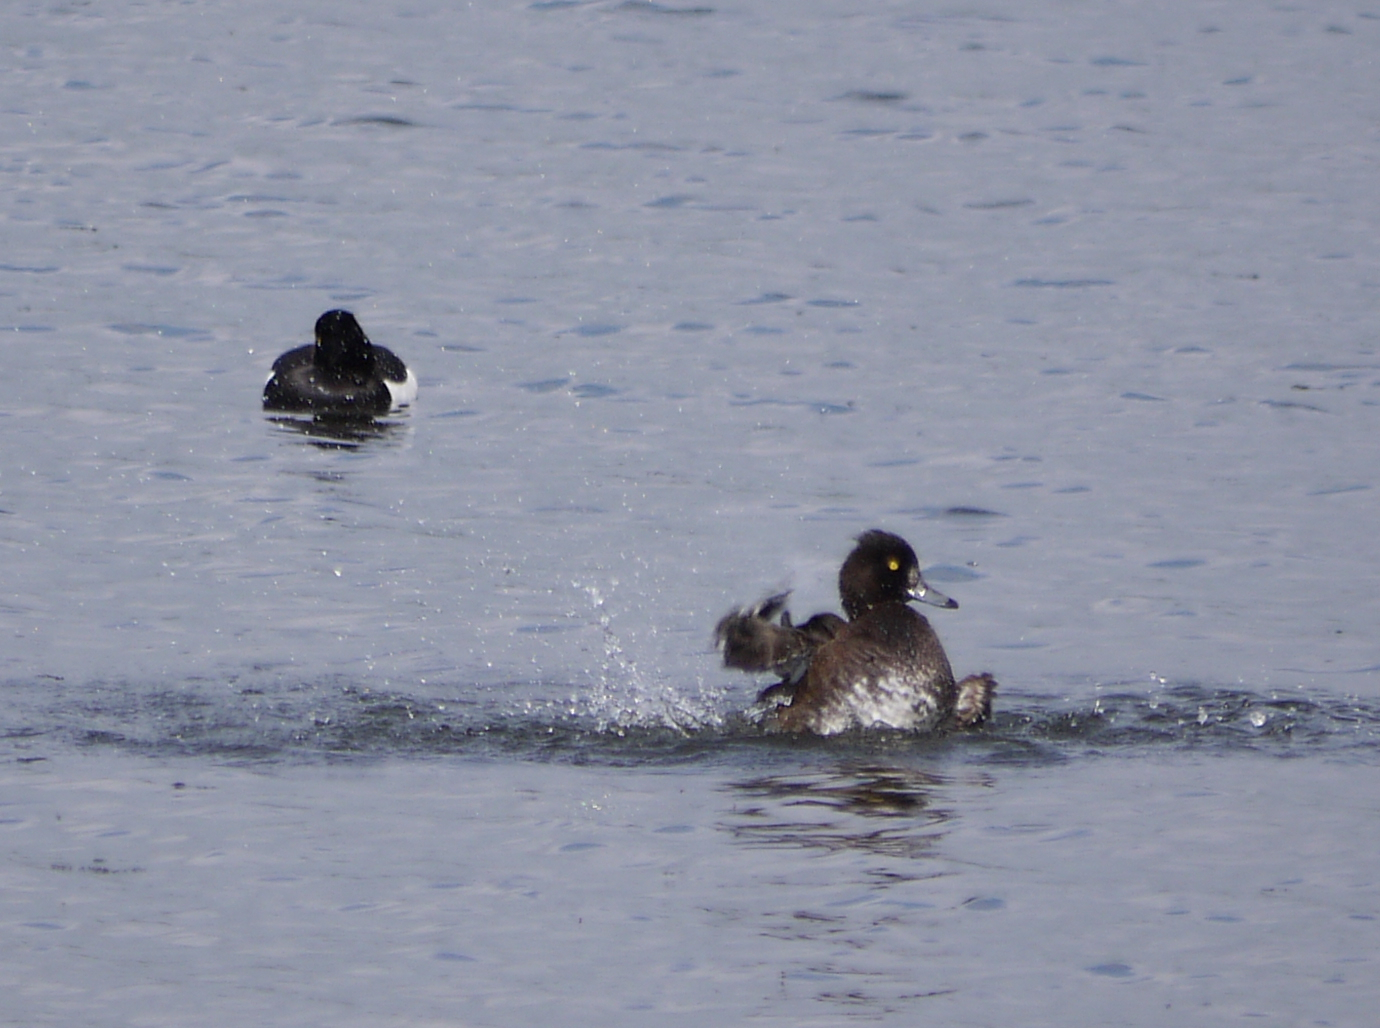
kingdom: Animalia
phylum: Chordata
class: Aves
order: Anseriformes
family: Anatidae
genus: Aythya
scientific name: Aythya fuligula
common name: Tufted duck
